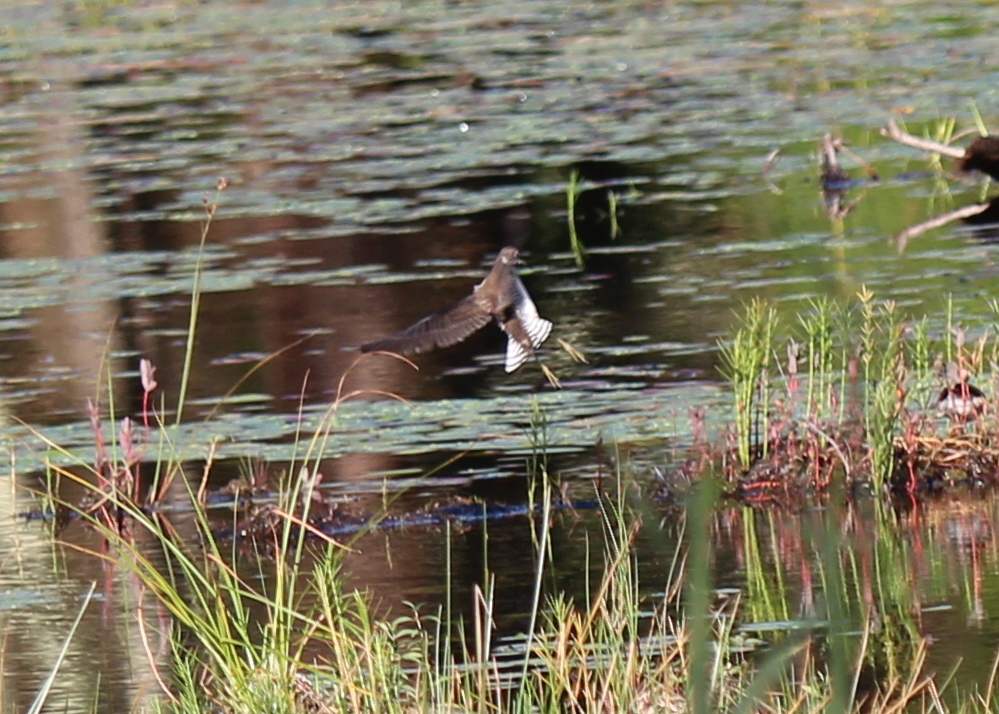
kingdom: Animalia
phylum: Chordata
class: Aves
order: Charadriiformes
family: Scolopacidae
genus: Tringa
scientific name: Tringa solitaria
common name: Solitary sandpiper
